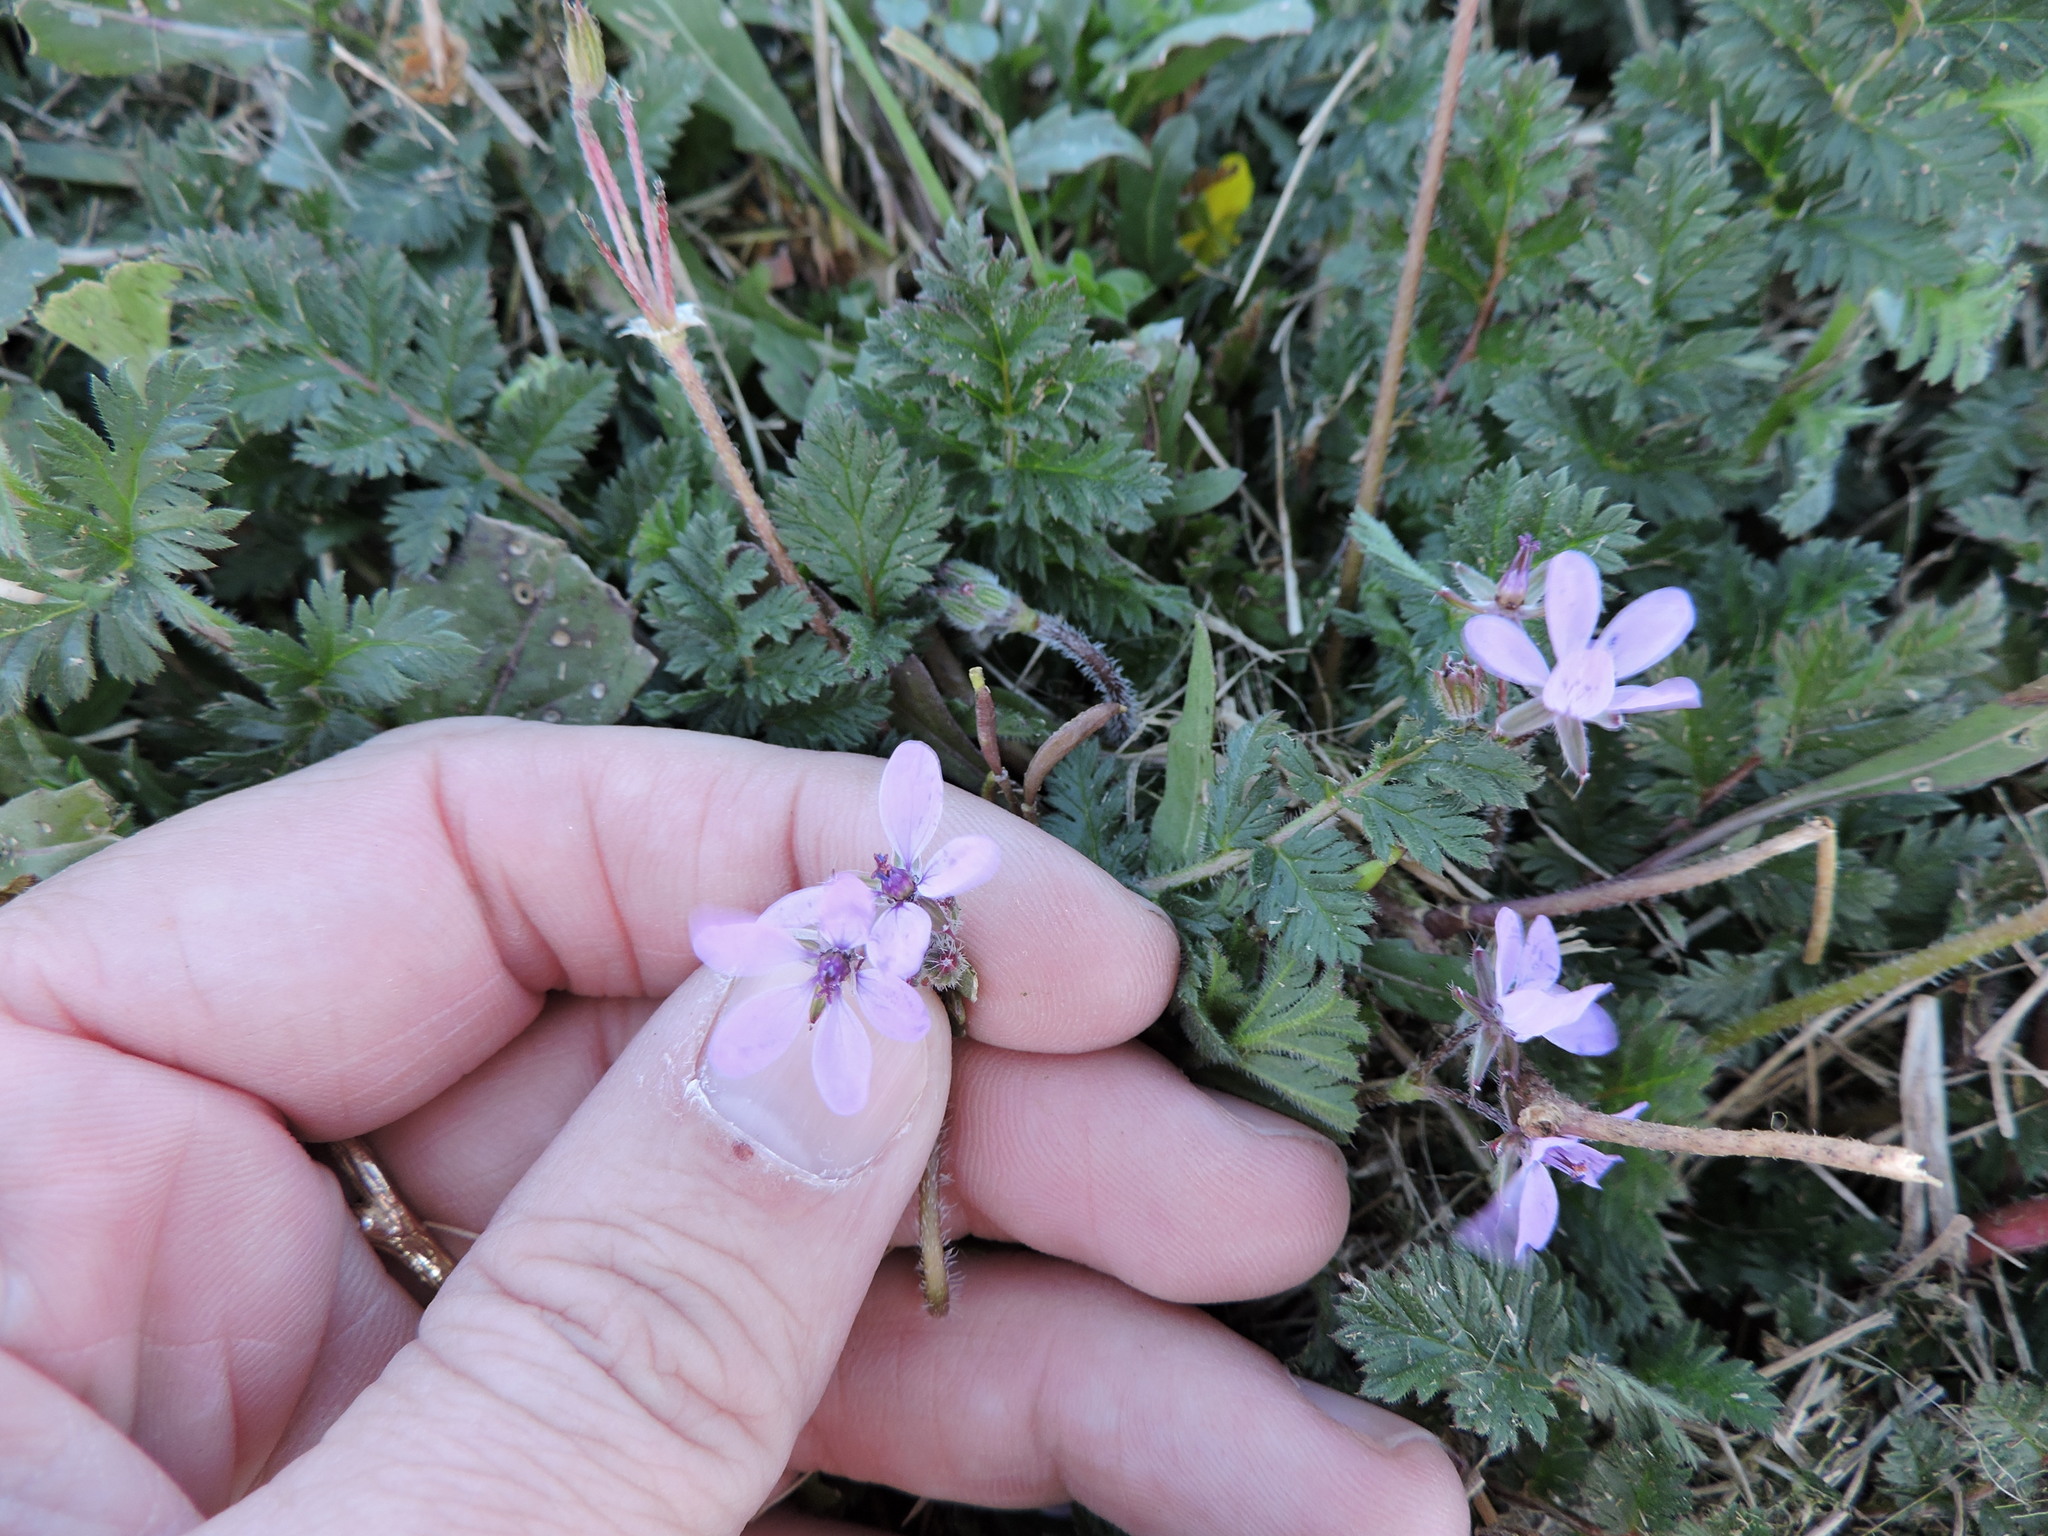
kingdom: Plantae
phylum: Tracheophyta
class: Magnoliopsida
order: Geraniales
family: Geraniaceae
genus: Erodium
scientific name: Erodium cicutarium
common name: Common stork's-bill
